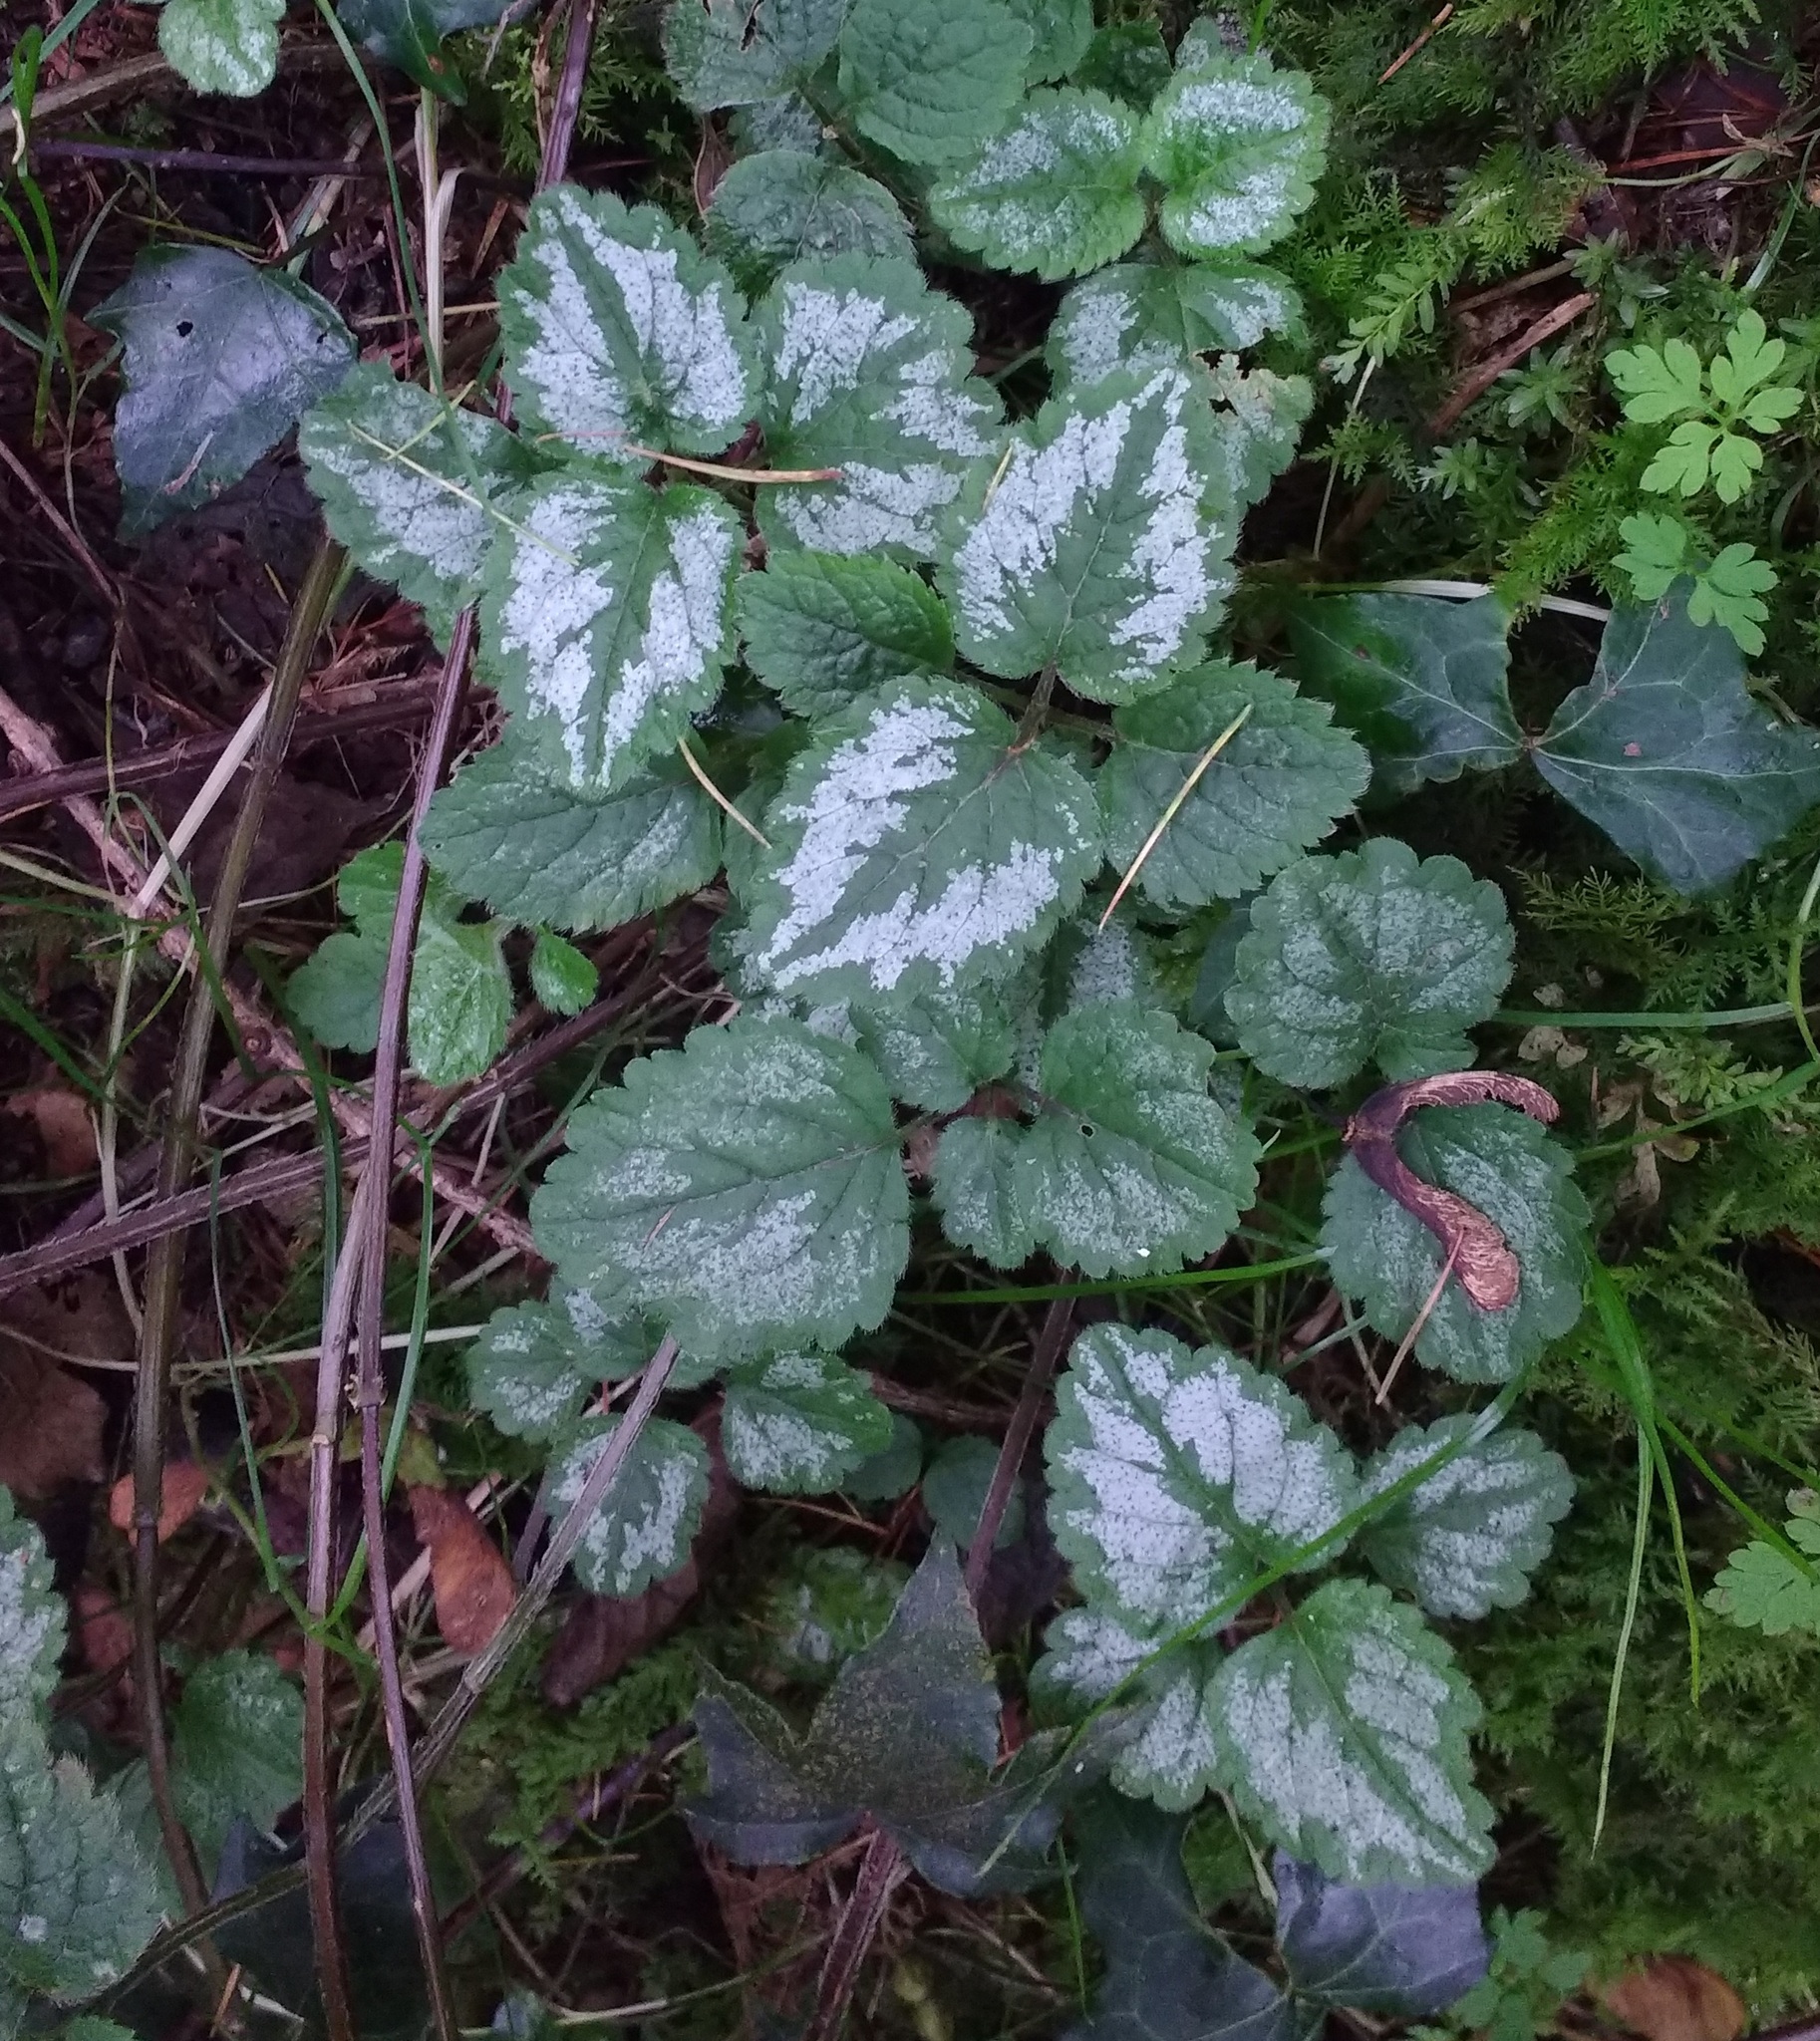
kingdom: Plantae
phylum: Tracheophyta
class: Magnoliopsida
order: Lamiales
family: Lamiaceae
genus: Lamium
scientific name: Lamium galeobdolon
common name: Yellow archangel
